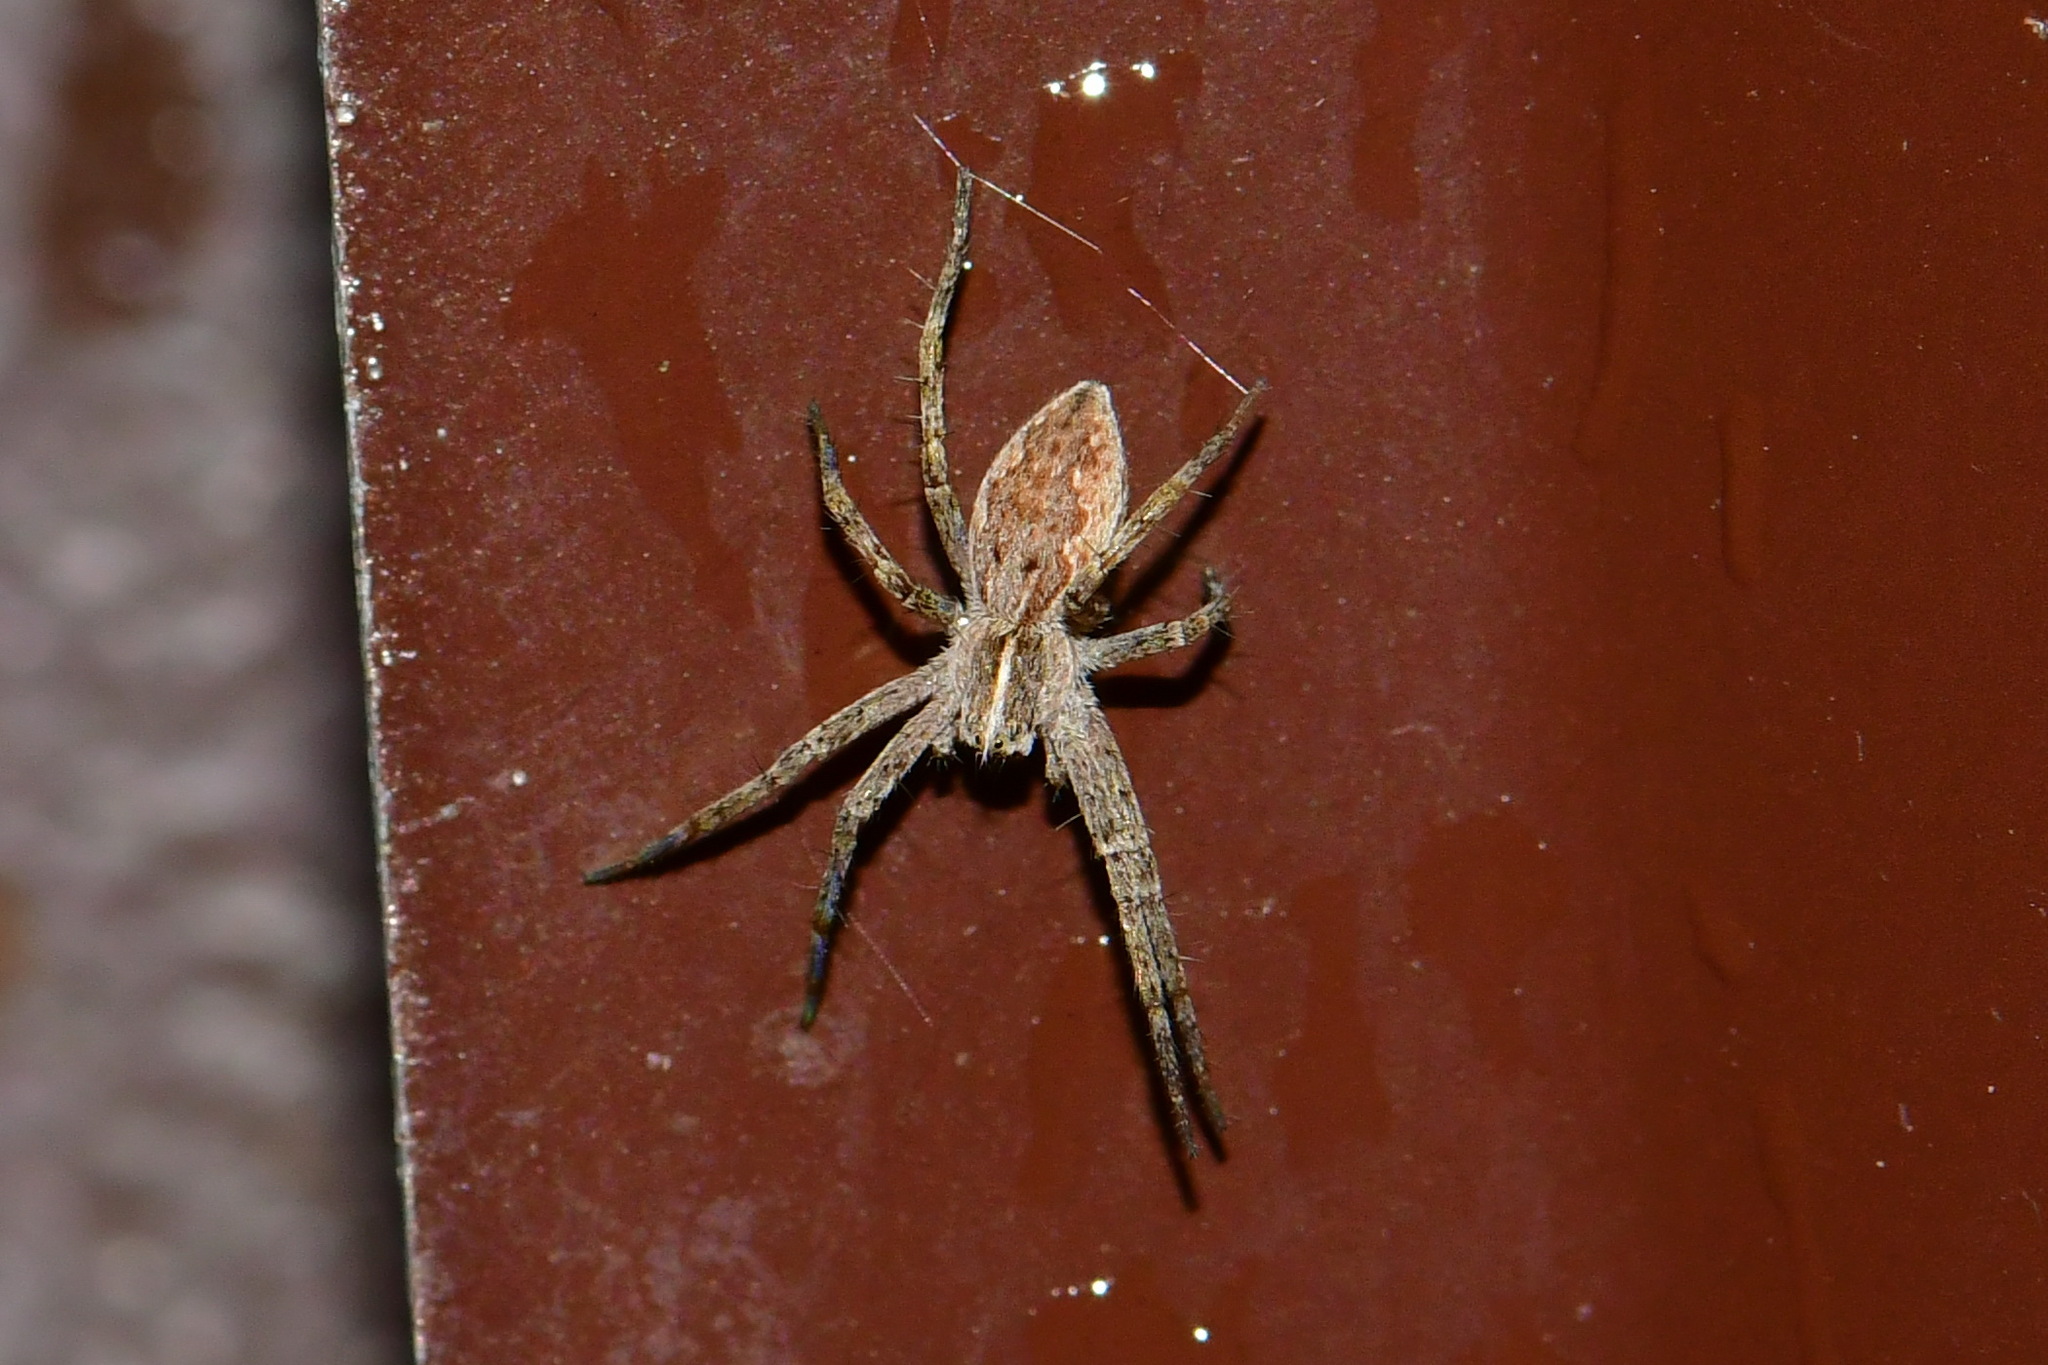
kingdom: Animalia
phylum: Arthropoda
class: Arachnida
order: Araneae
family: Pisauridae
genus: Pisaura
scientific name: Pisaura mirabilis
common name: Tent spider
